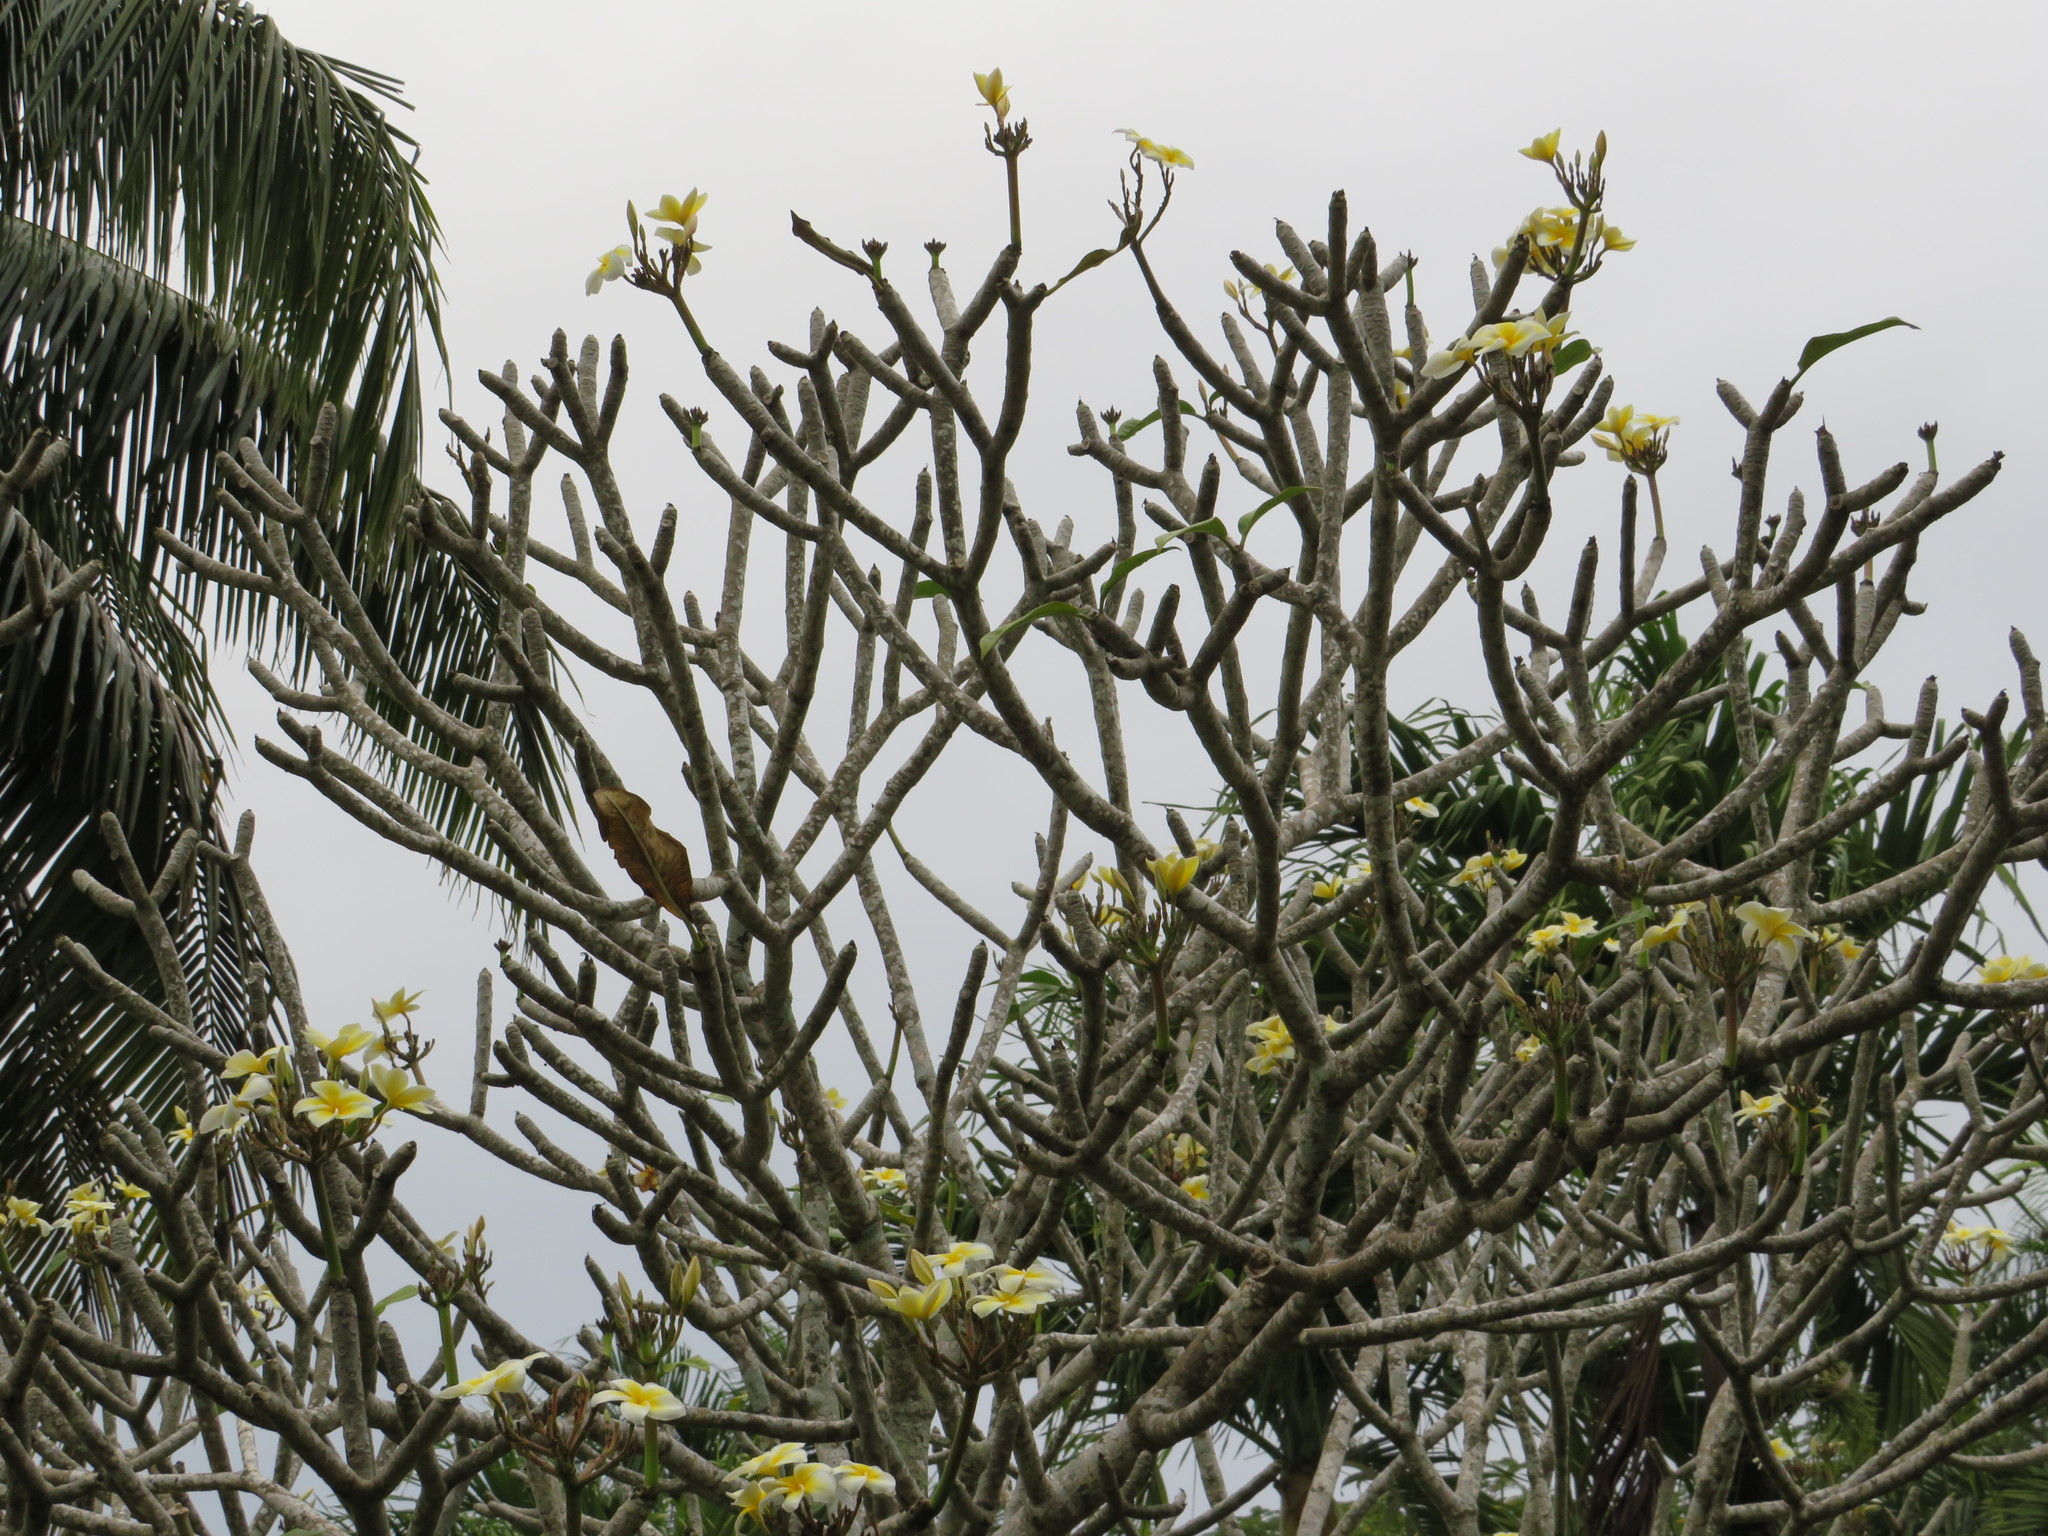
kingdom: Plantae
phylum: Tracheophyta
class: Magnoliopsida
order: Gentianales
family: Apocynaceae
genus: Plumeria
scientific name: Plumeria rubra
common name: Pagoda-tree
